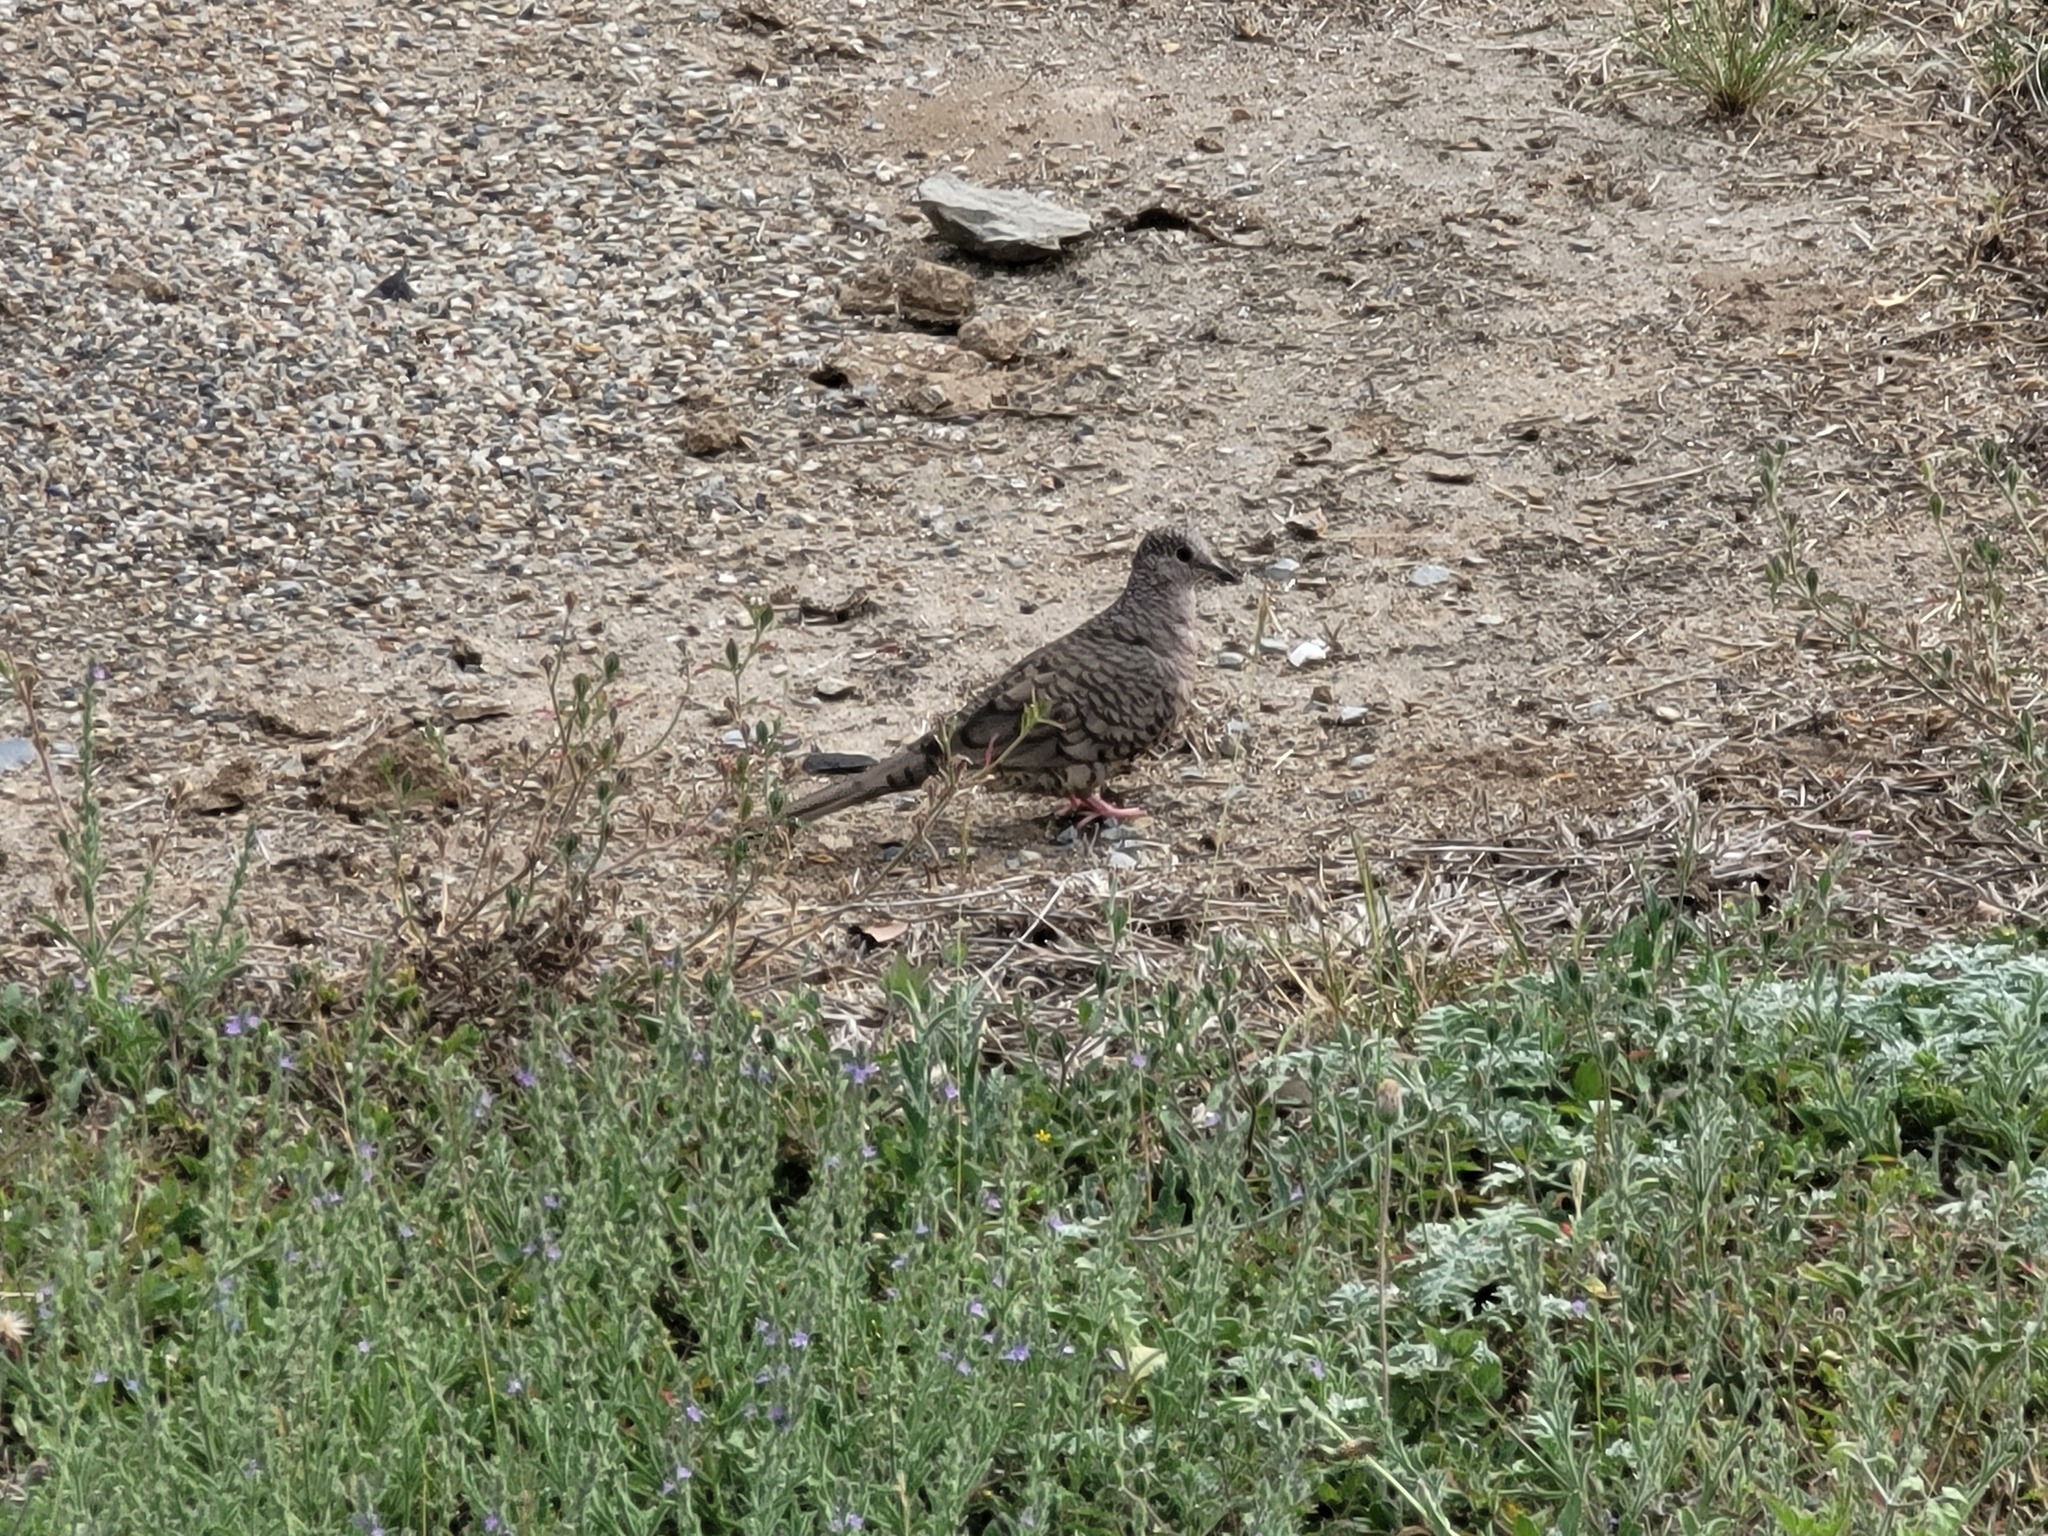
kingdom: Animalia
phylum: Chordata
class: Aves
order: Columbiformes
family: Columbidae
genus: Columbina
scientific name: Columbina inca
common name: Inca dove
